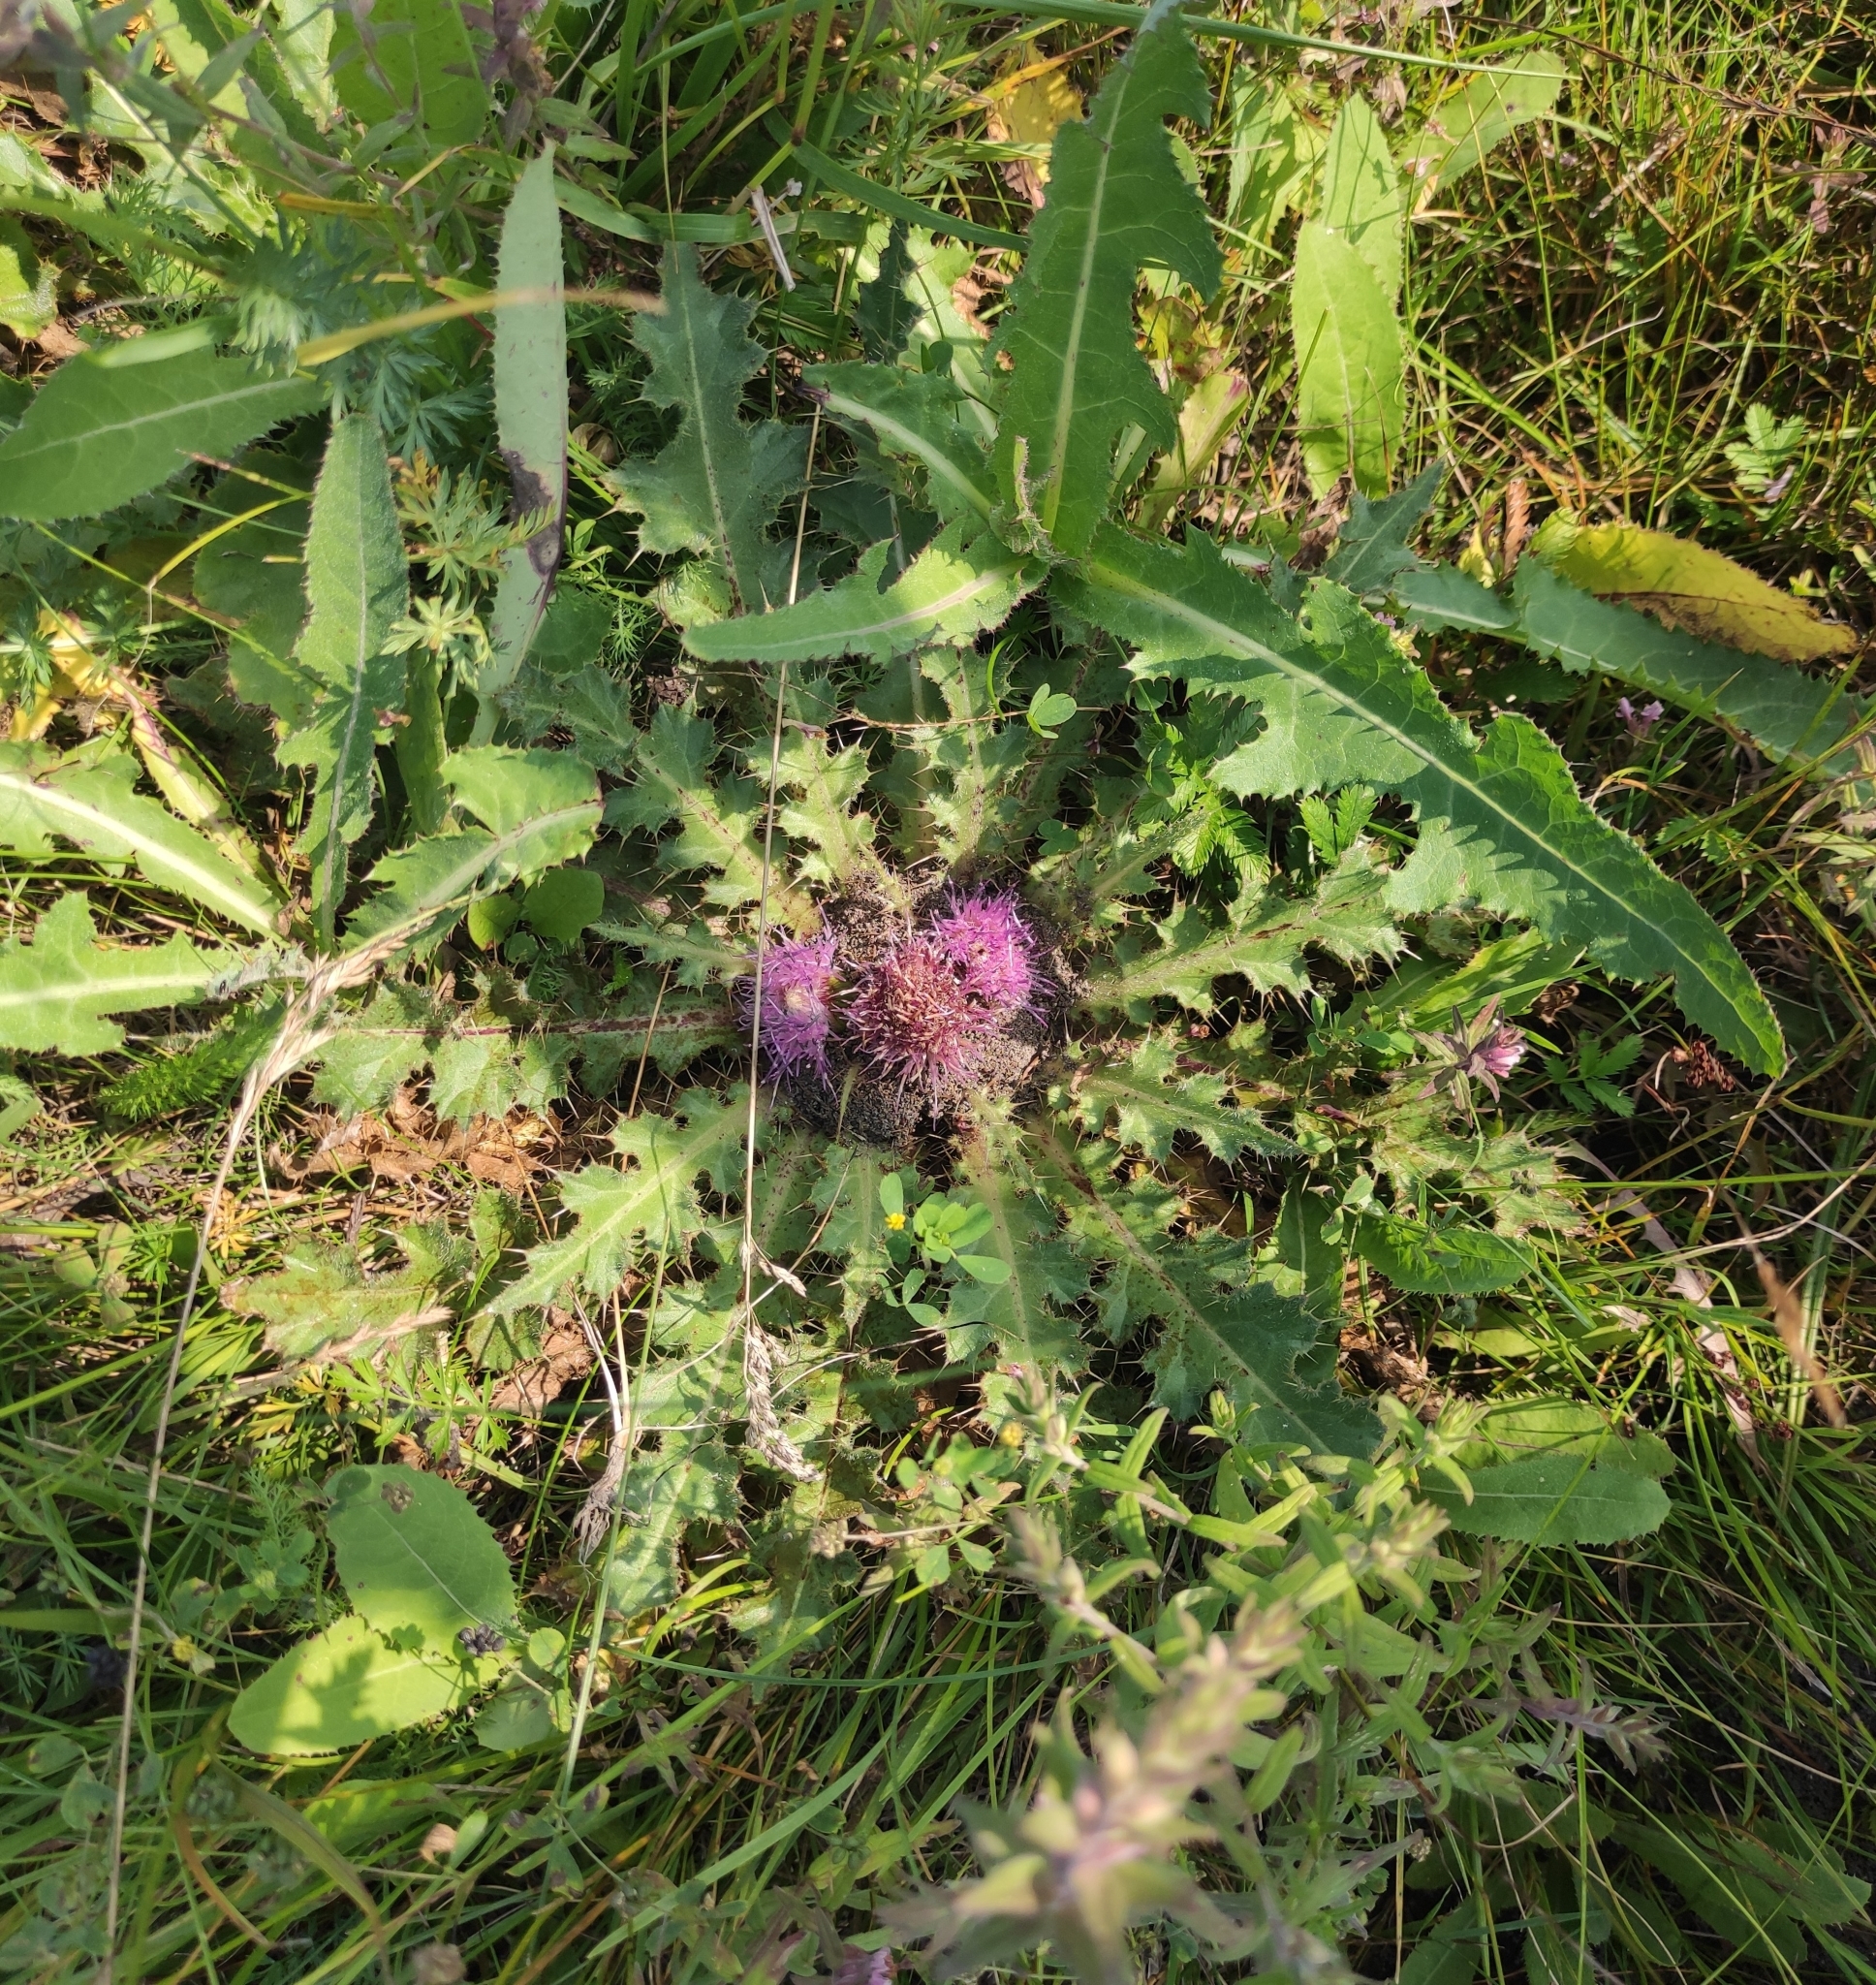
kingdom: Plantae
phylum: Tracheophyta
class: Magnoliopsida
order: Asterales
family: Asteraceae
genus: Cirsium
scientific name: Cirsium esculentum
